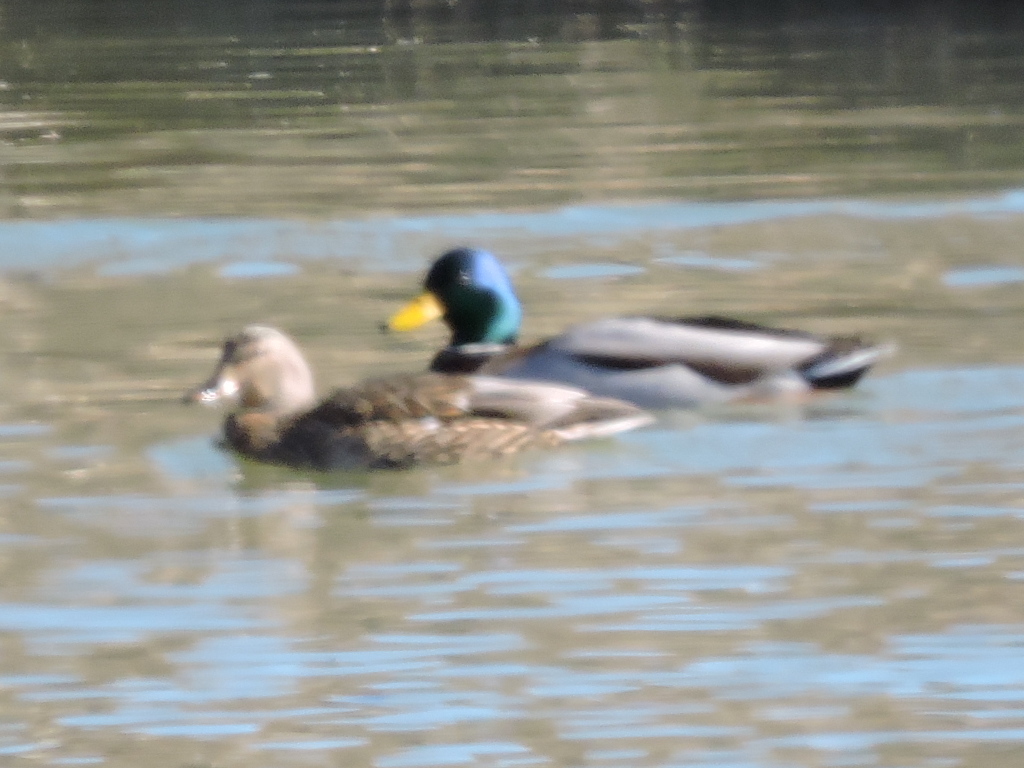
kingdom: Animalia
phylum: Chordata
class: Aves
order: Anseriformes
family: Anatidae
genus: Anas
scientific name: Anas platyrhynchos
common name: Mallard
